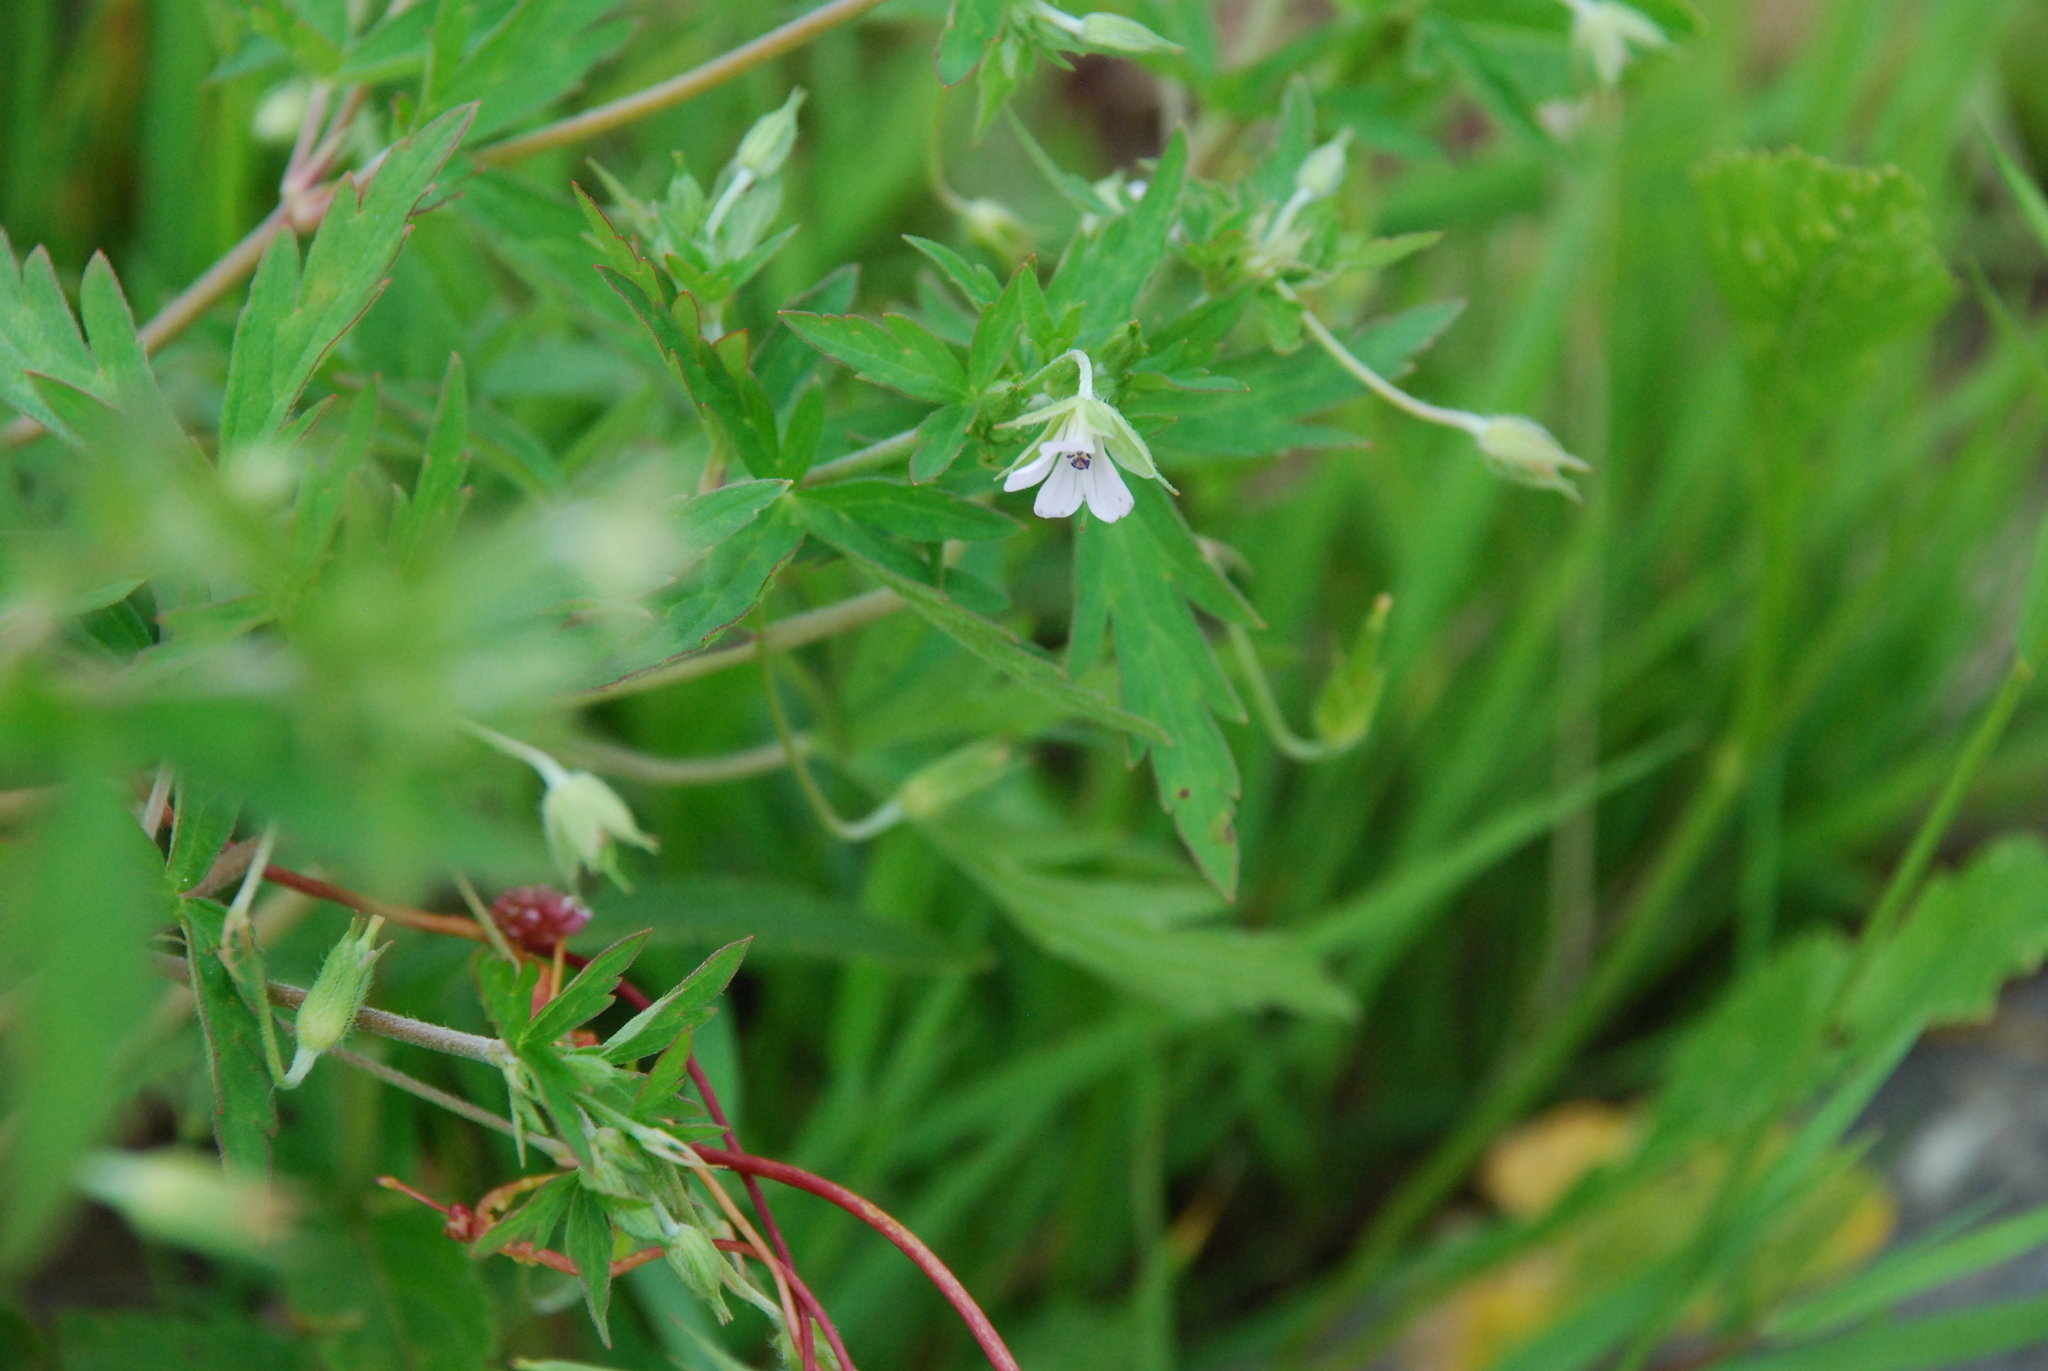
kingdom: Plantae
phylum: Tracheophyta
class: Magnoliopsida
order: Geraniales
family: Geraniaceae
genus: Geranium
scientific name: Geranium sibiricum
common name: Siberian crane's-bill
